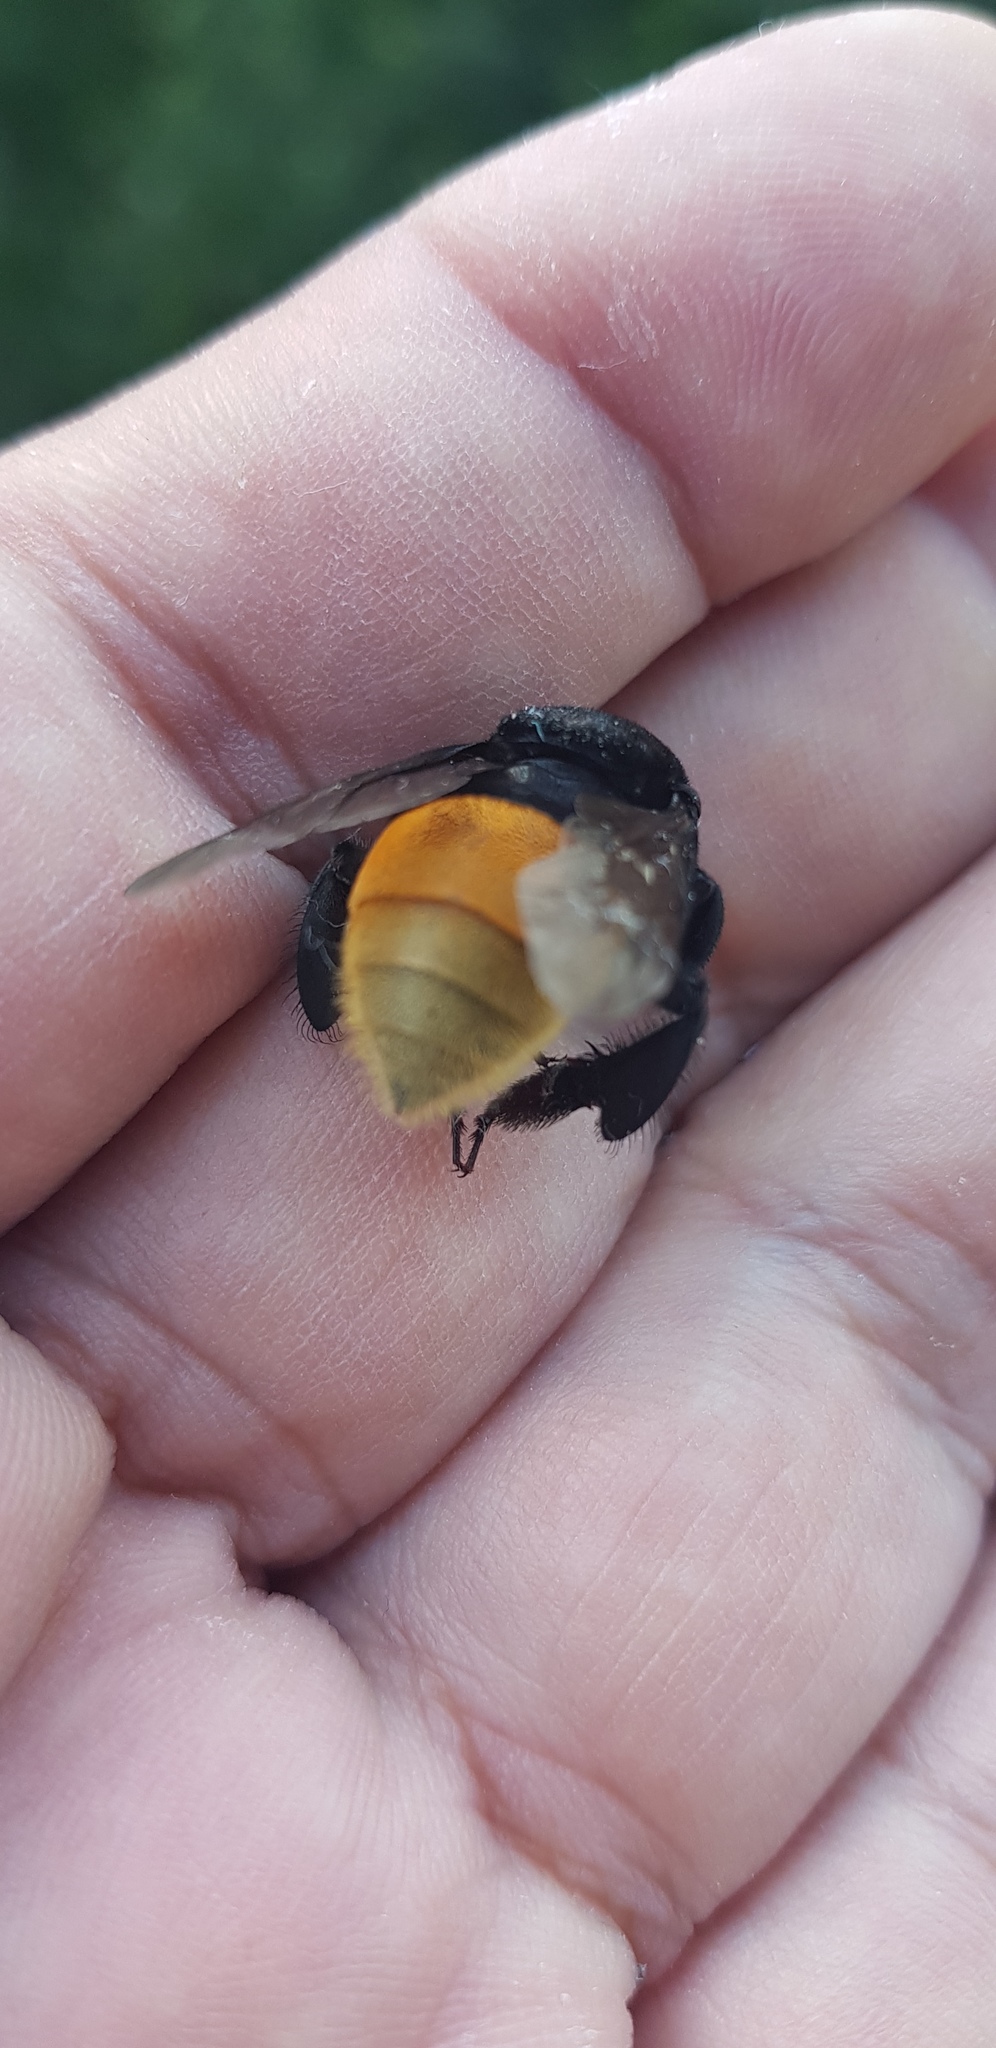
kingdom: Animalia
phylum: Arthropoda
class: Insecta
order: Hymenoptera
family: Apidae
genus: Eulaema
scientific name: Eulaema polychroma
